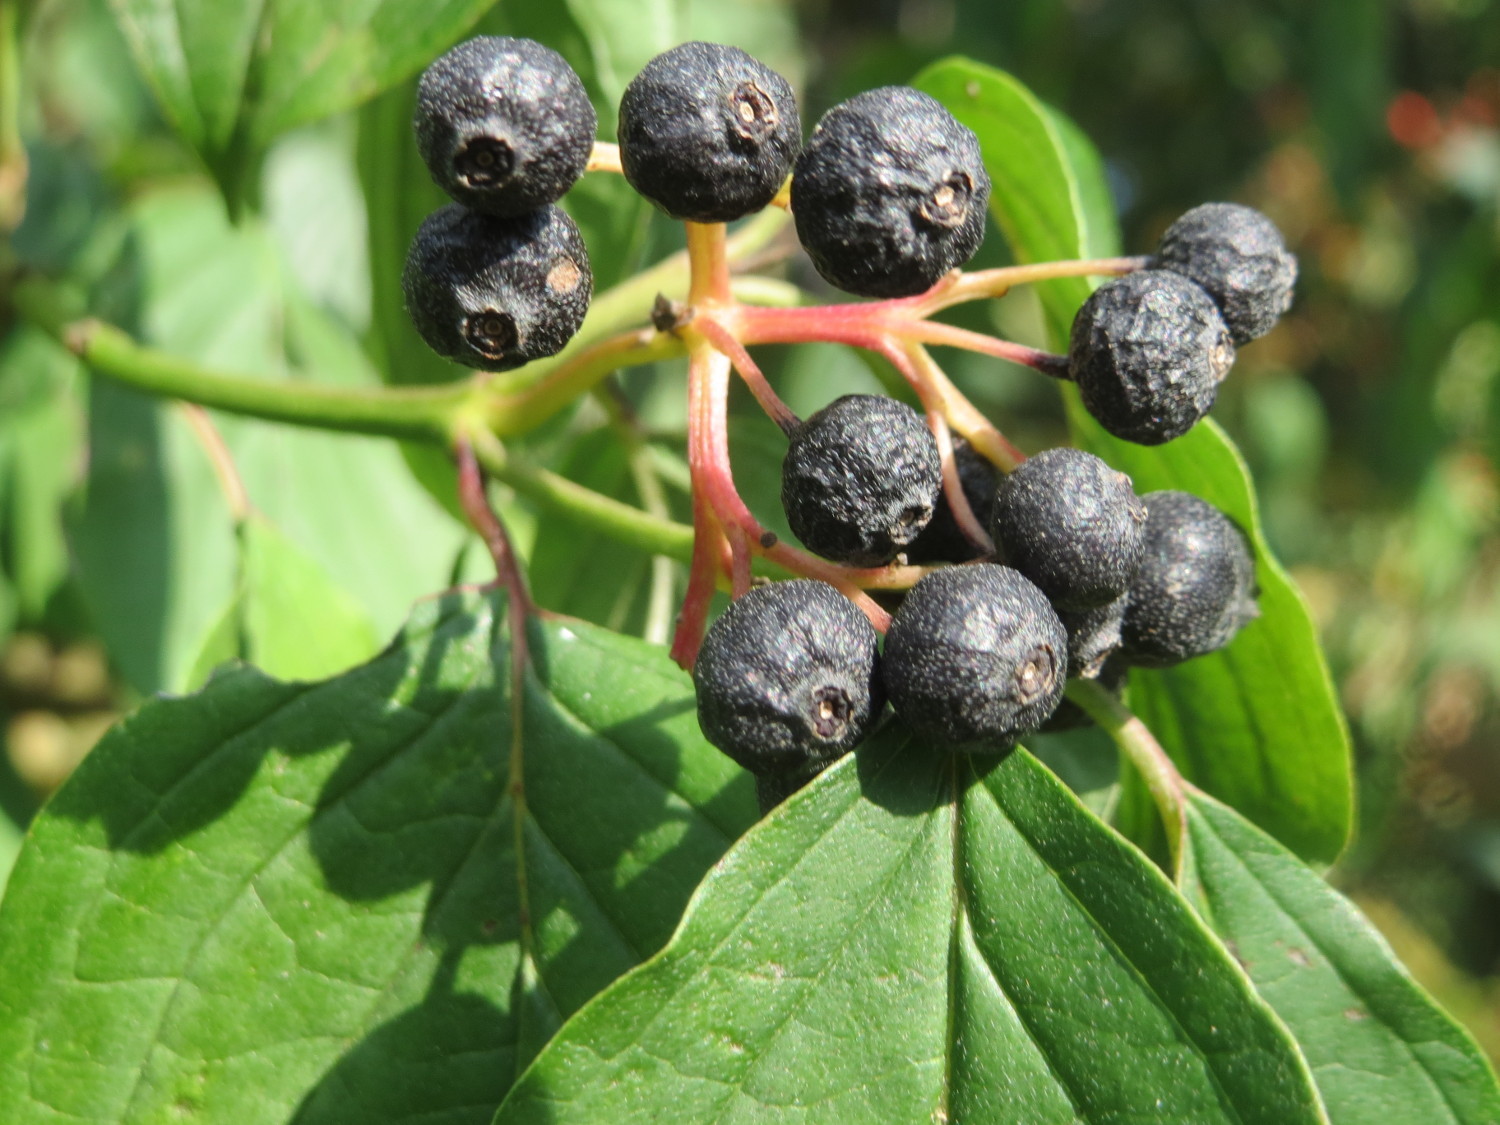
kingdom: Plantae
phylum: Tracheophyta
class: Magnoliopsida
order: Cornales
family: Cornaceae
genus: Cornus
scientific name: Cornus sanguinea
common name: Dogwood
